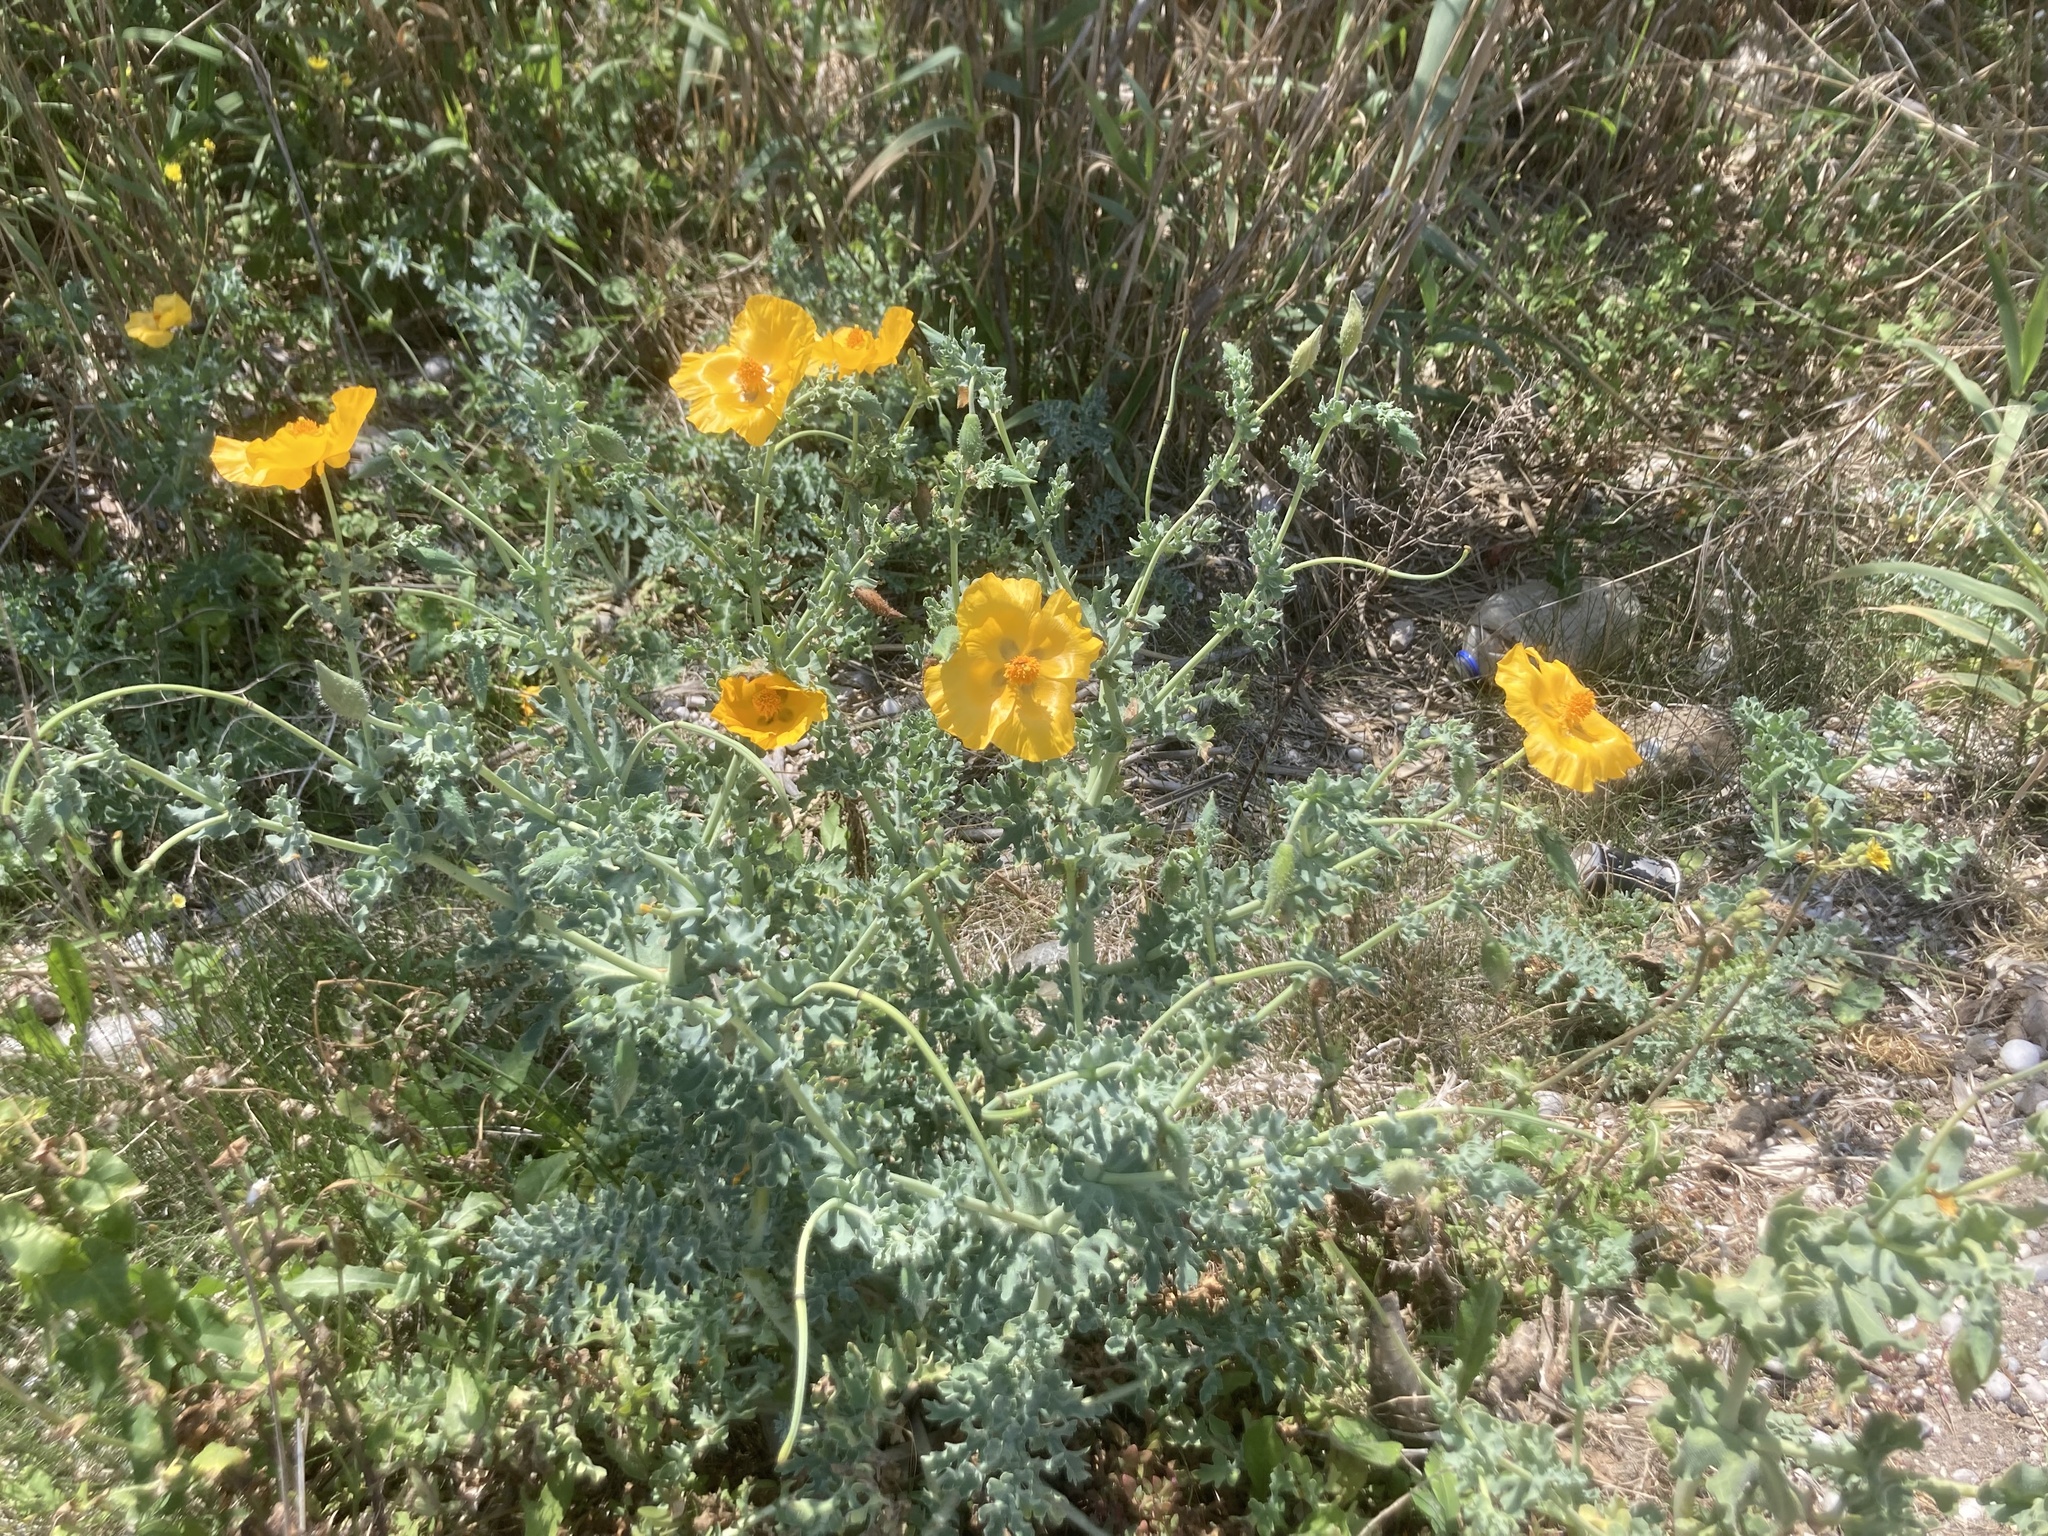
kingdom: Plantae
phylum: Tracheophyta
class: Magnoliopsida
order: Ranunculales
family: Papaveraceae
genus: Glaucium
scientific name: Glaucium flavum
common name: Yellow horned-poppy
